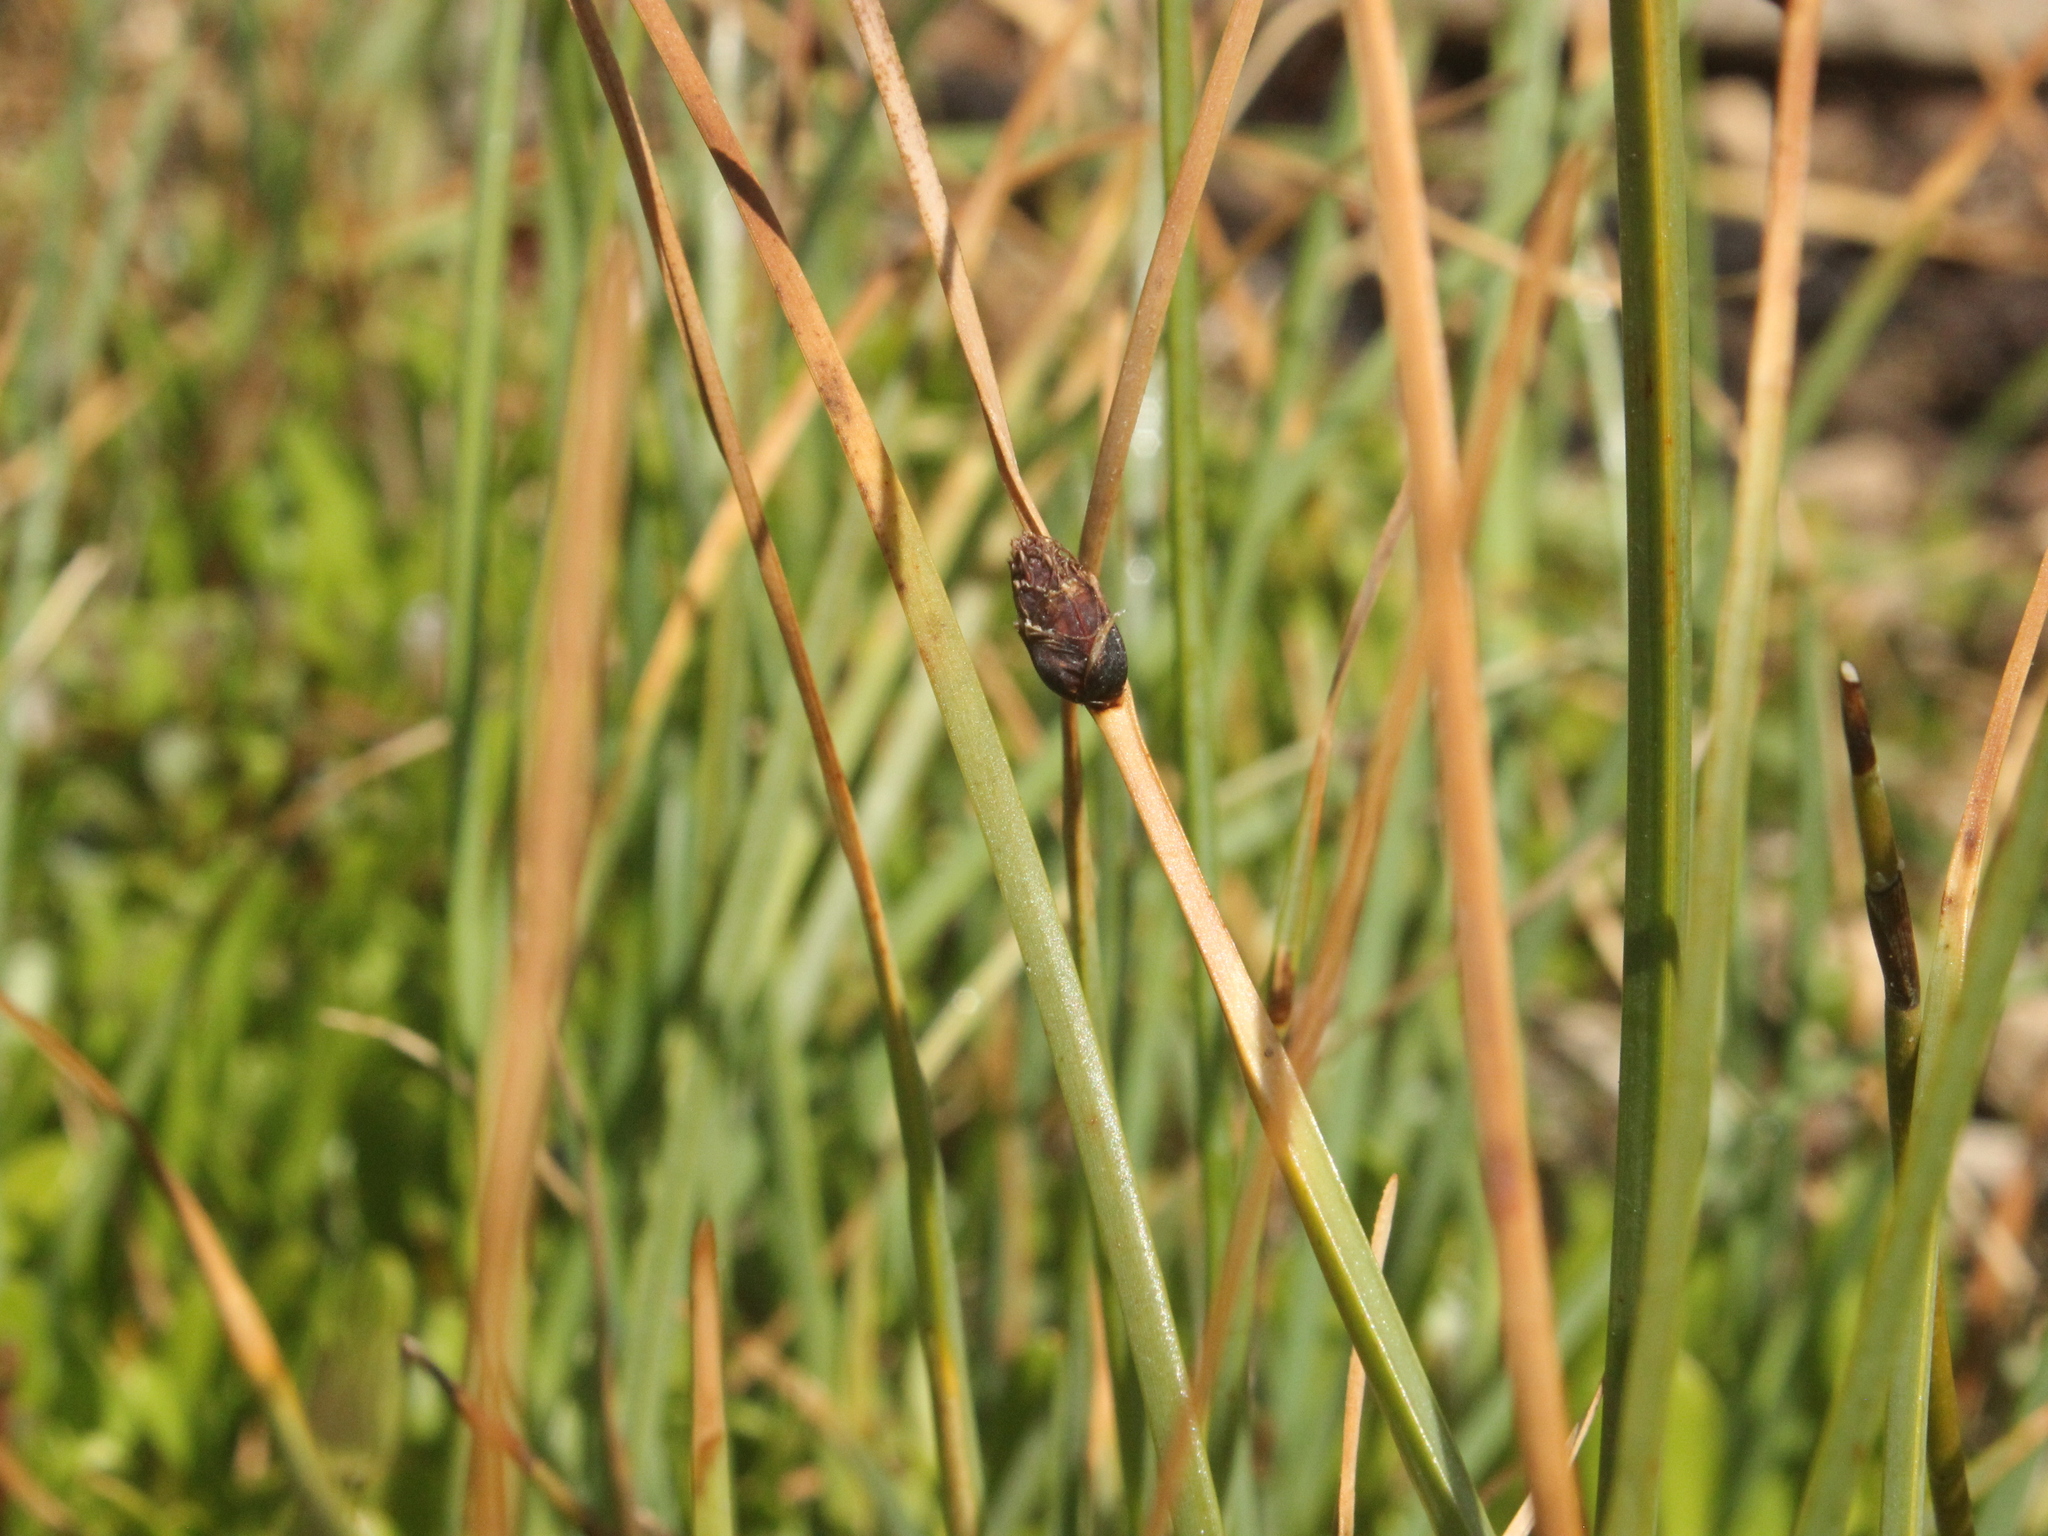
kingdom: Plantae
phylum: Tracheophyta
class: Liliopsida
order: Poales
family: Cyperaceae
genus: Schoenoplectus
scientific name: Schoenoplectus pungens
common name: Sharp club-rush
